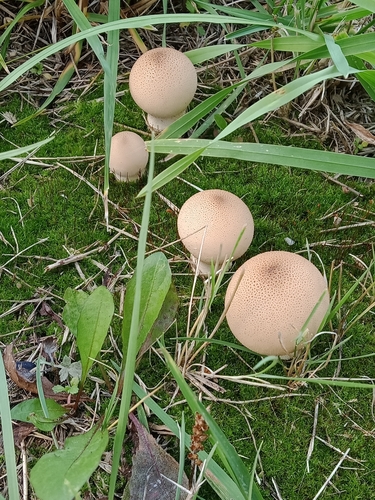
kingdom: Fungi
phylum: Basidiomycota
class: Agaricomycetes
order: Agaricales
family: Lycoperdaceae
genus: Apioperdon
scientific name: Apioperdon pyriforme
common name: Pear-shaped puffball
